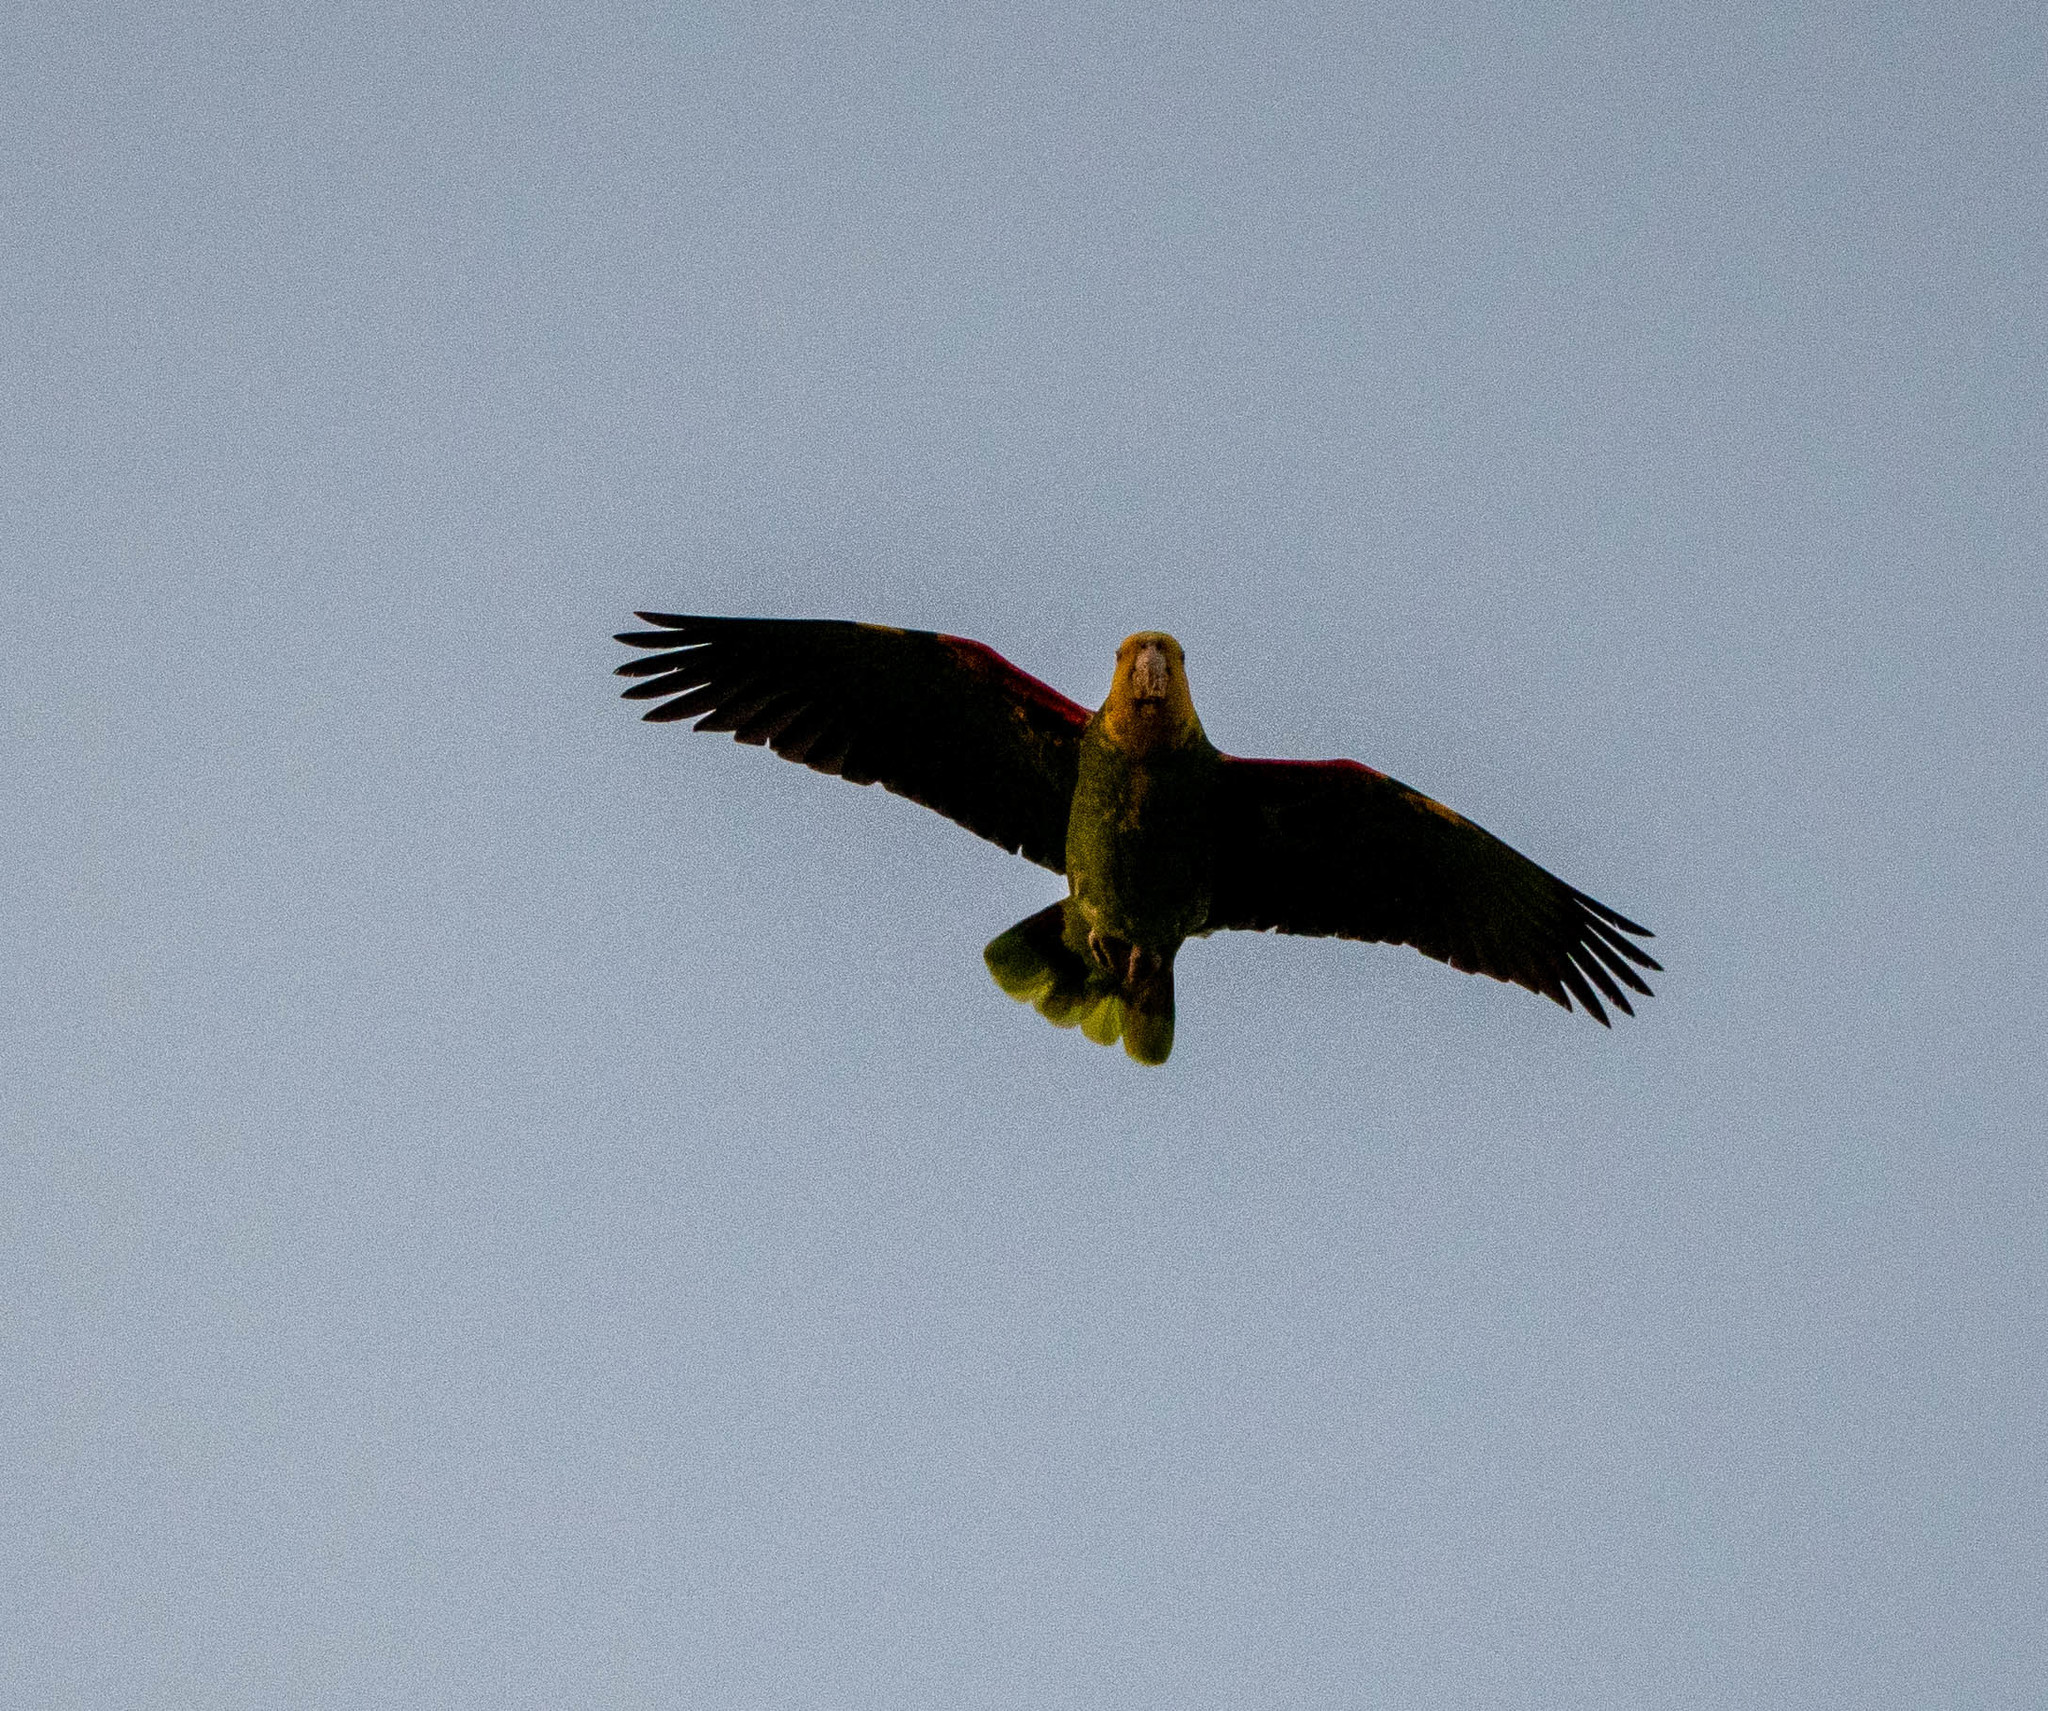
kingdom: Animalia
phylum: Chordata
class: Aves
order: Psittaciformes
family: Psittacidae
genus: Amazona
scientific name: Amazona oratrix
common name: Yellow-headed amazon
